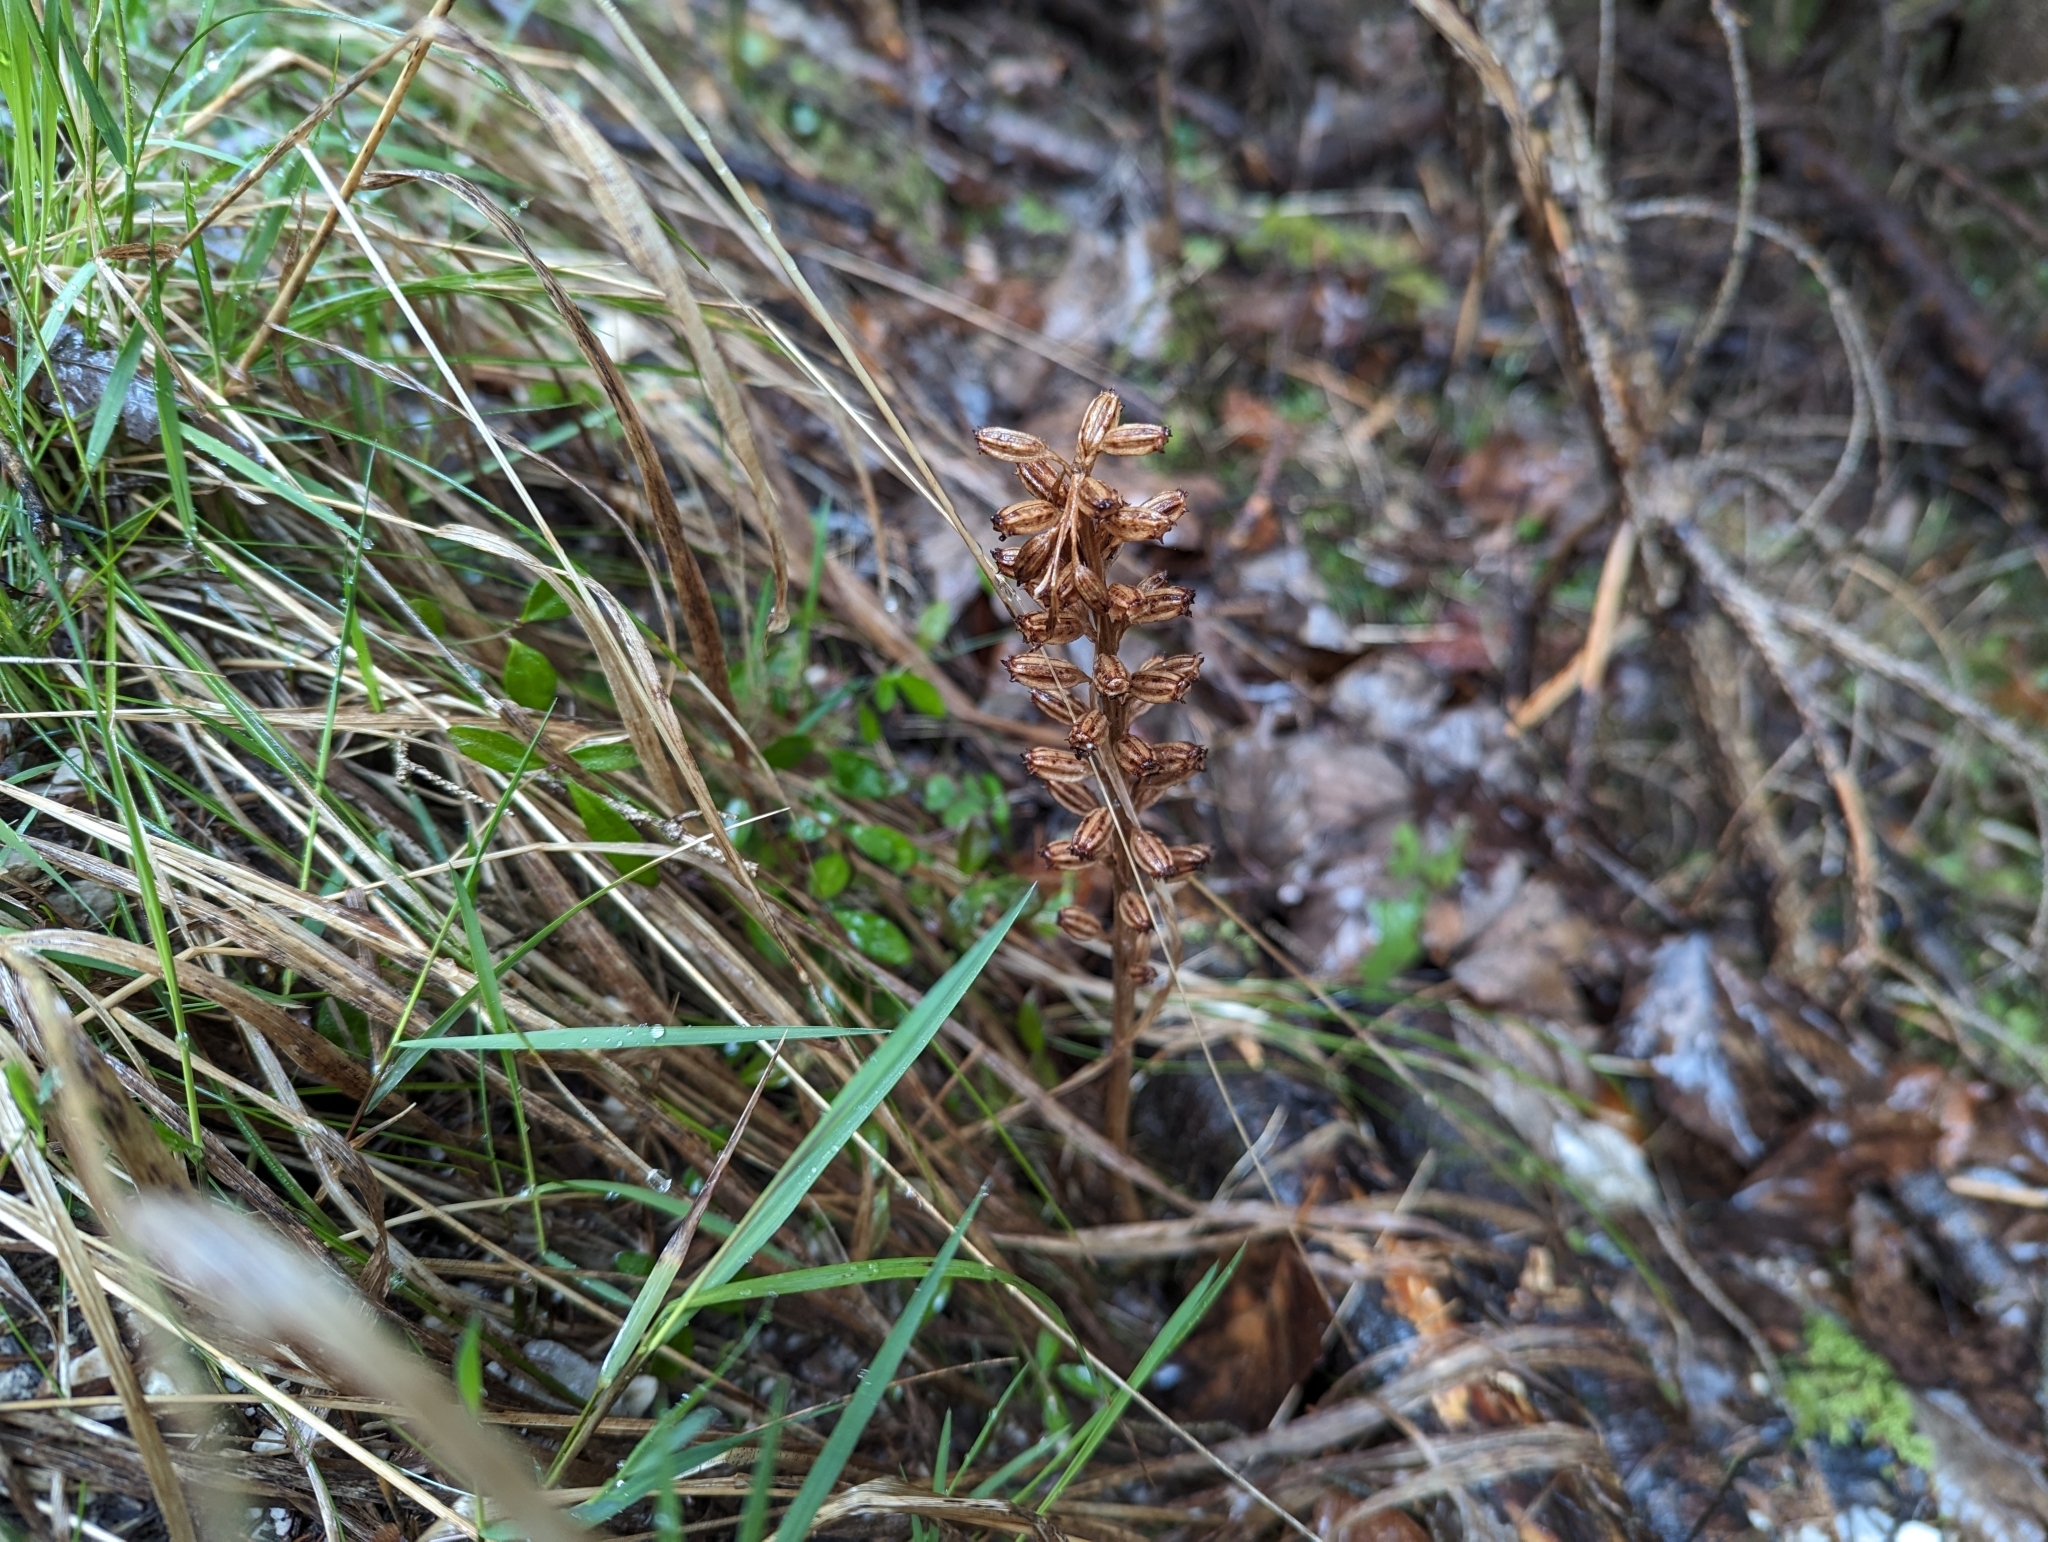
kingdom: Plantae
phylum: Tracheophyta
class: Liliopsida
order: Asparagales
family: Orchidaceae
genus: Neottia
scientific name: Neottia nidus-avis
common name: Bird's-nest orchid
